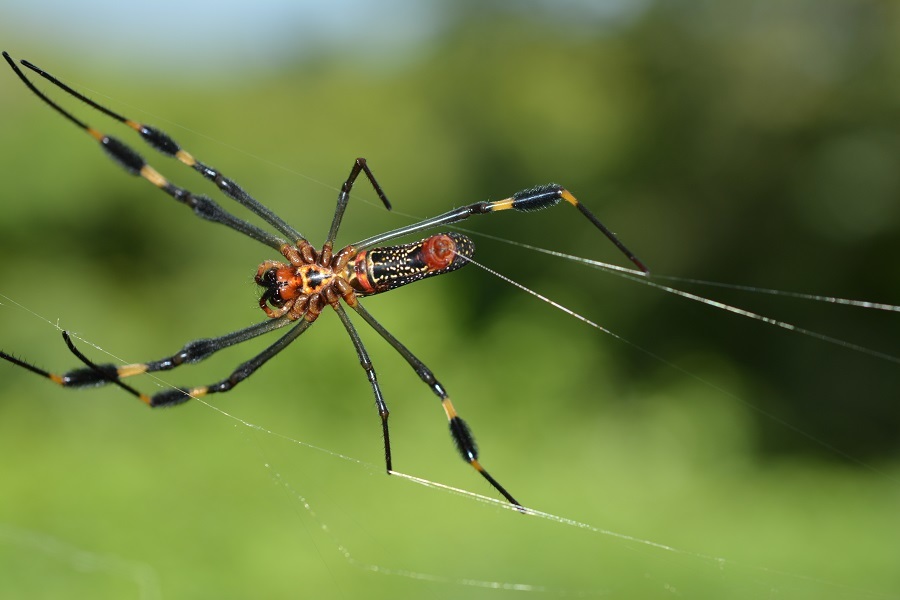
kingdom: Animalia
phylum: Arthropoda
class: Arachnida
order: Araneae
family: Araneidae
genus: Trichonephila
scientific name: Trichonephila clavipes
